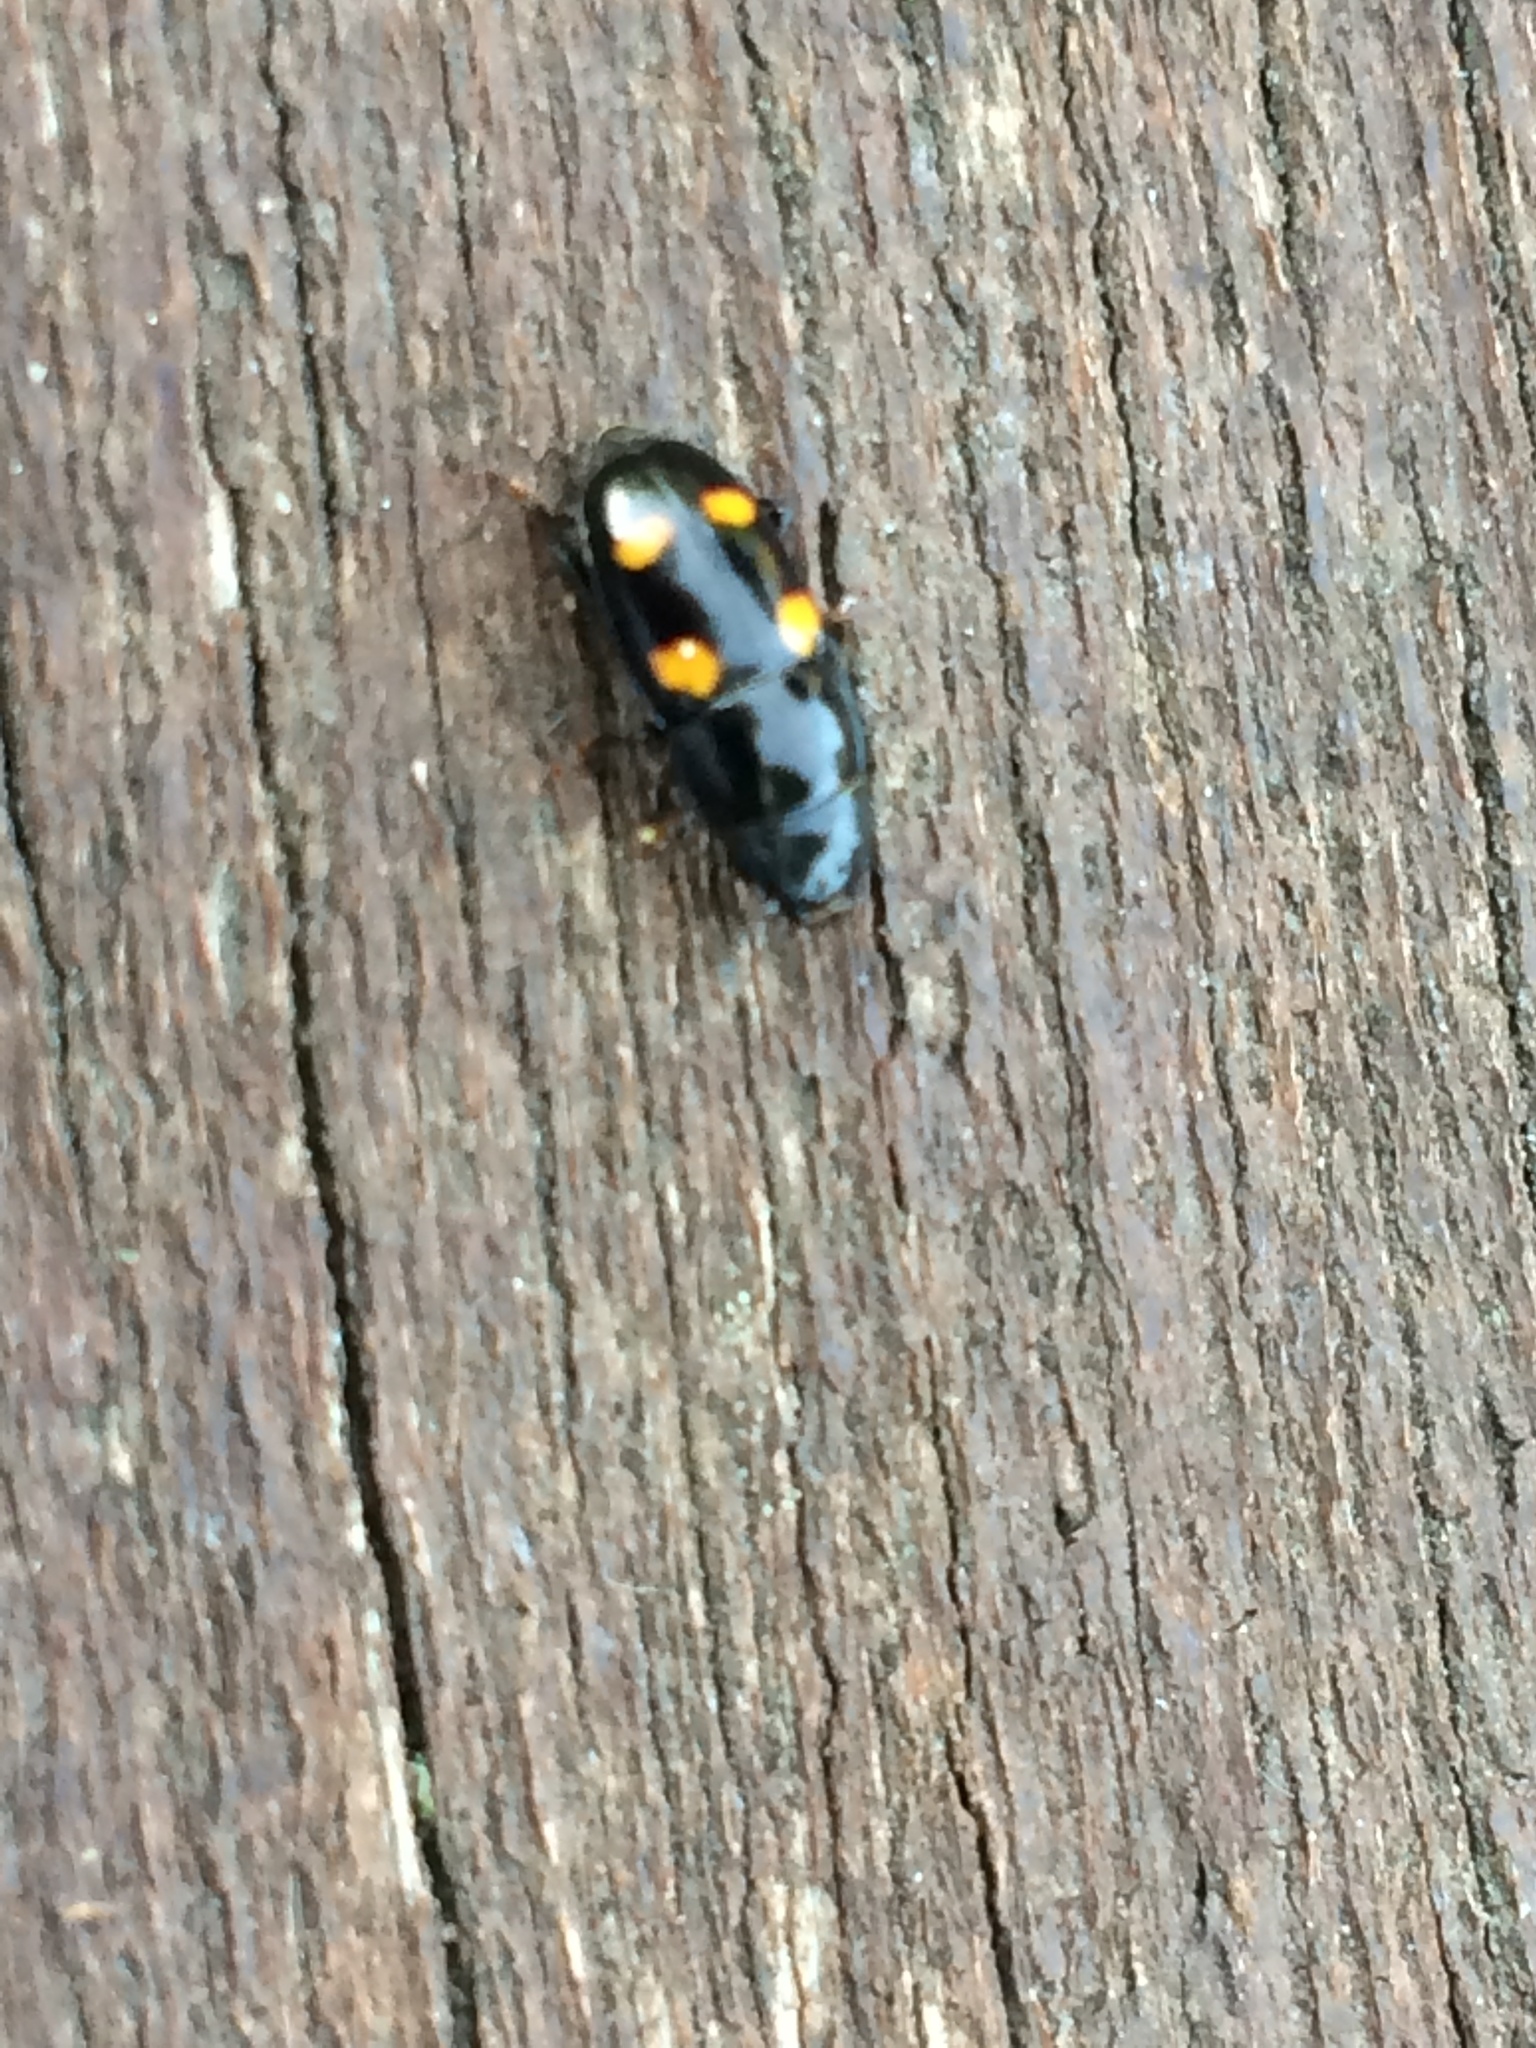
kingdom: Animalia
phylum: Arthropoda
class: Insecta
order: Coleoptera
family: Nitidulidae
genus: Glischrochilus
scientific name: Glischrochilus hortensis
